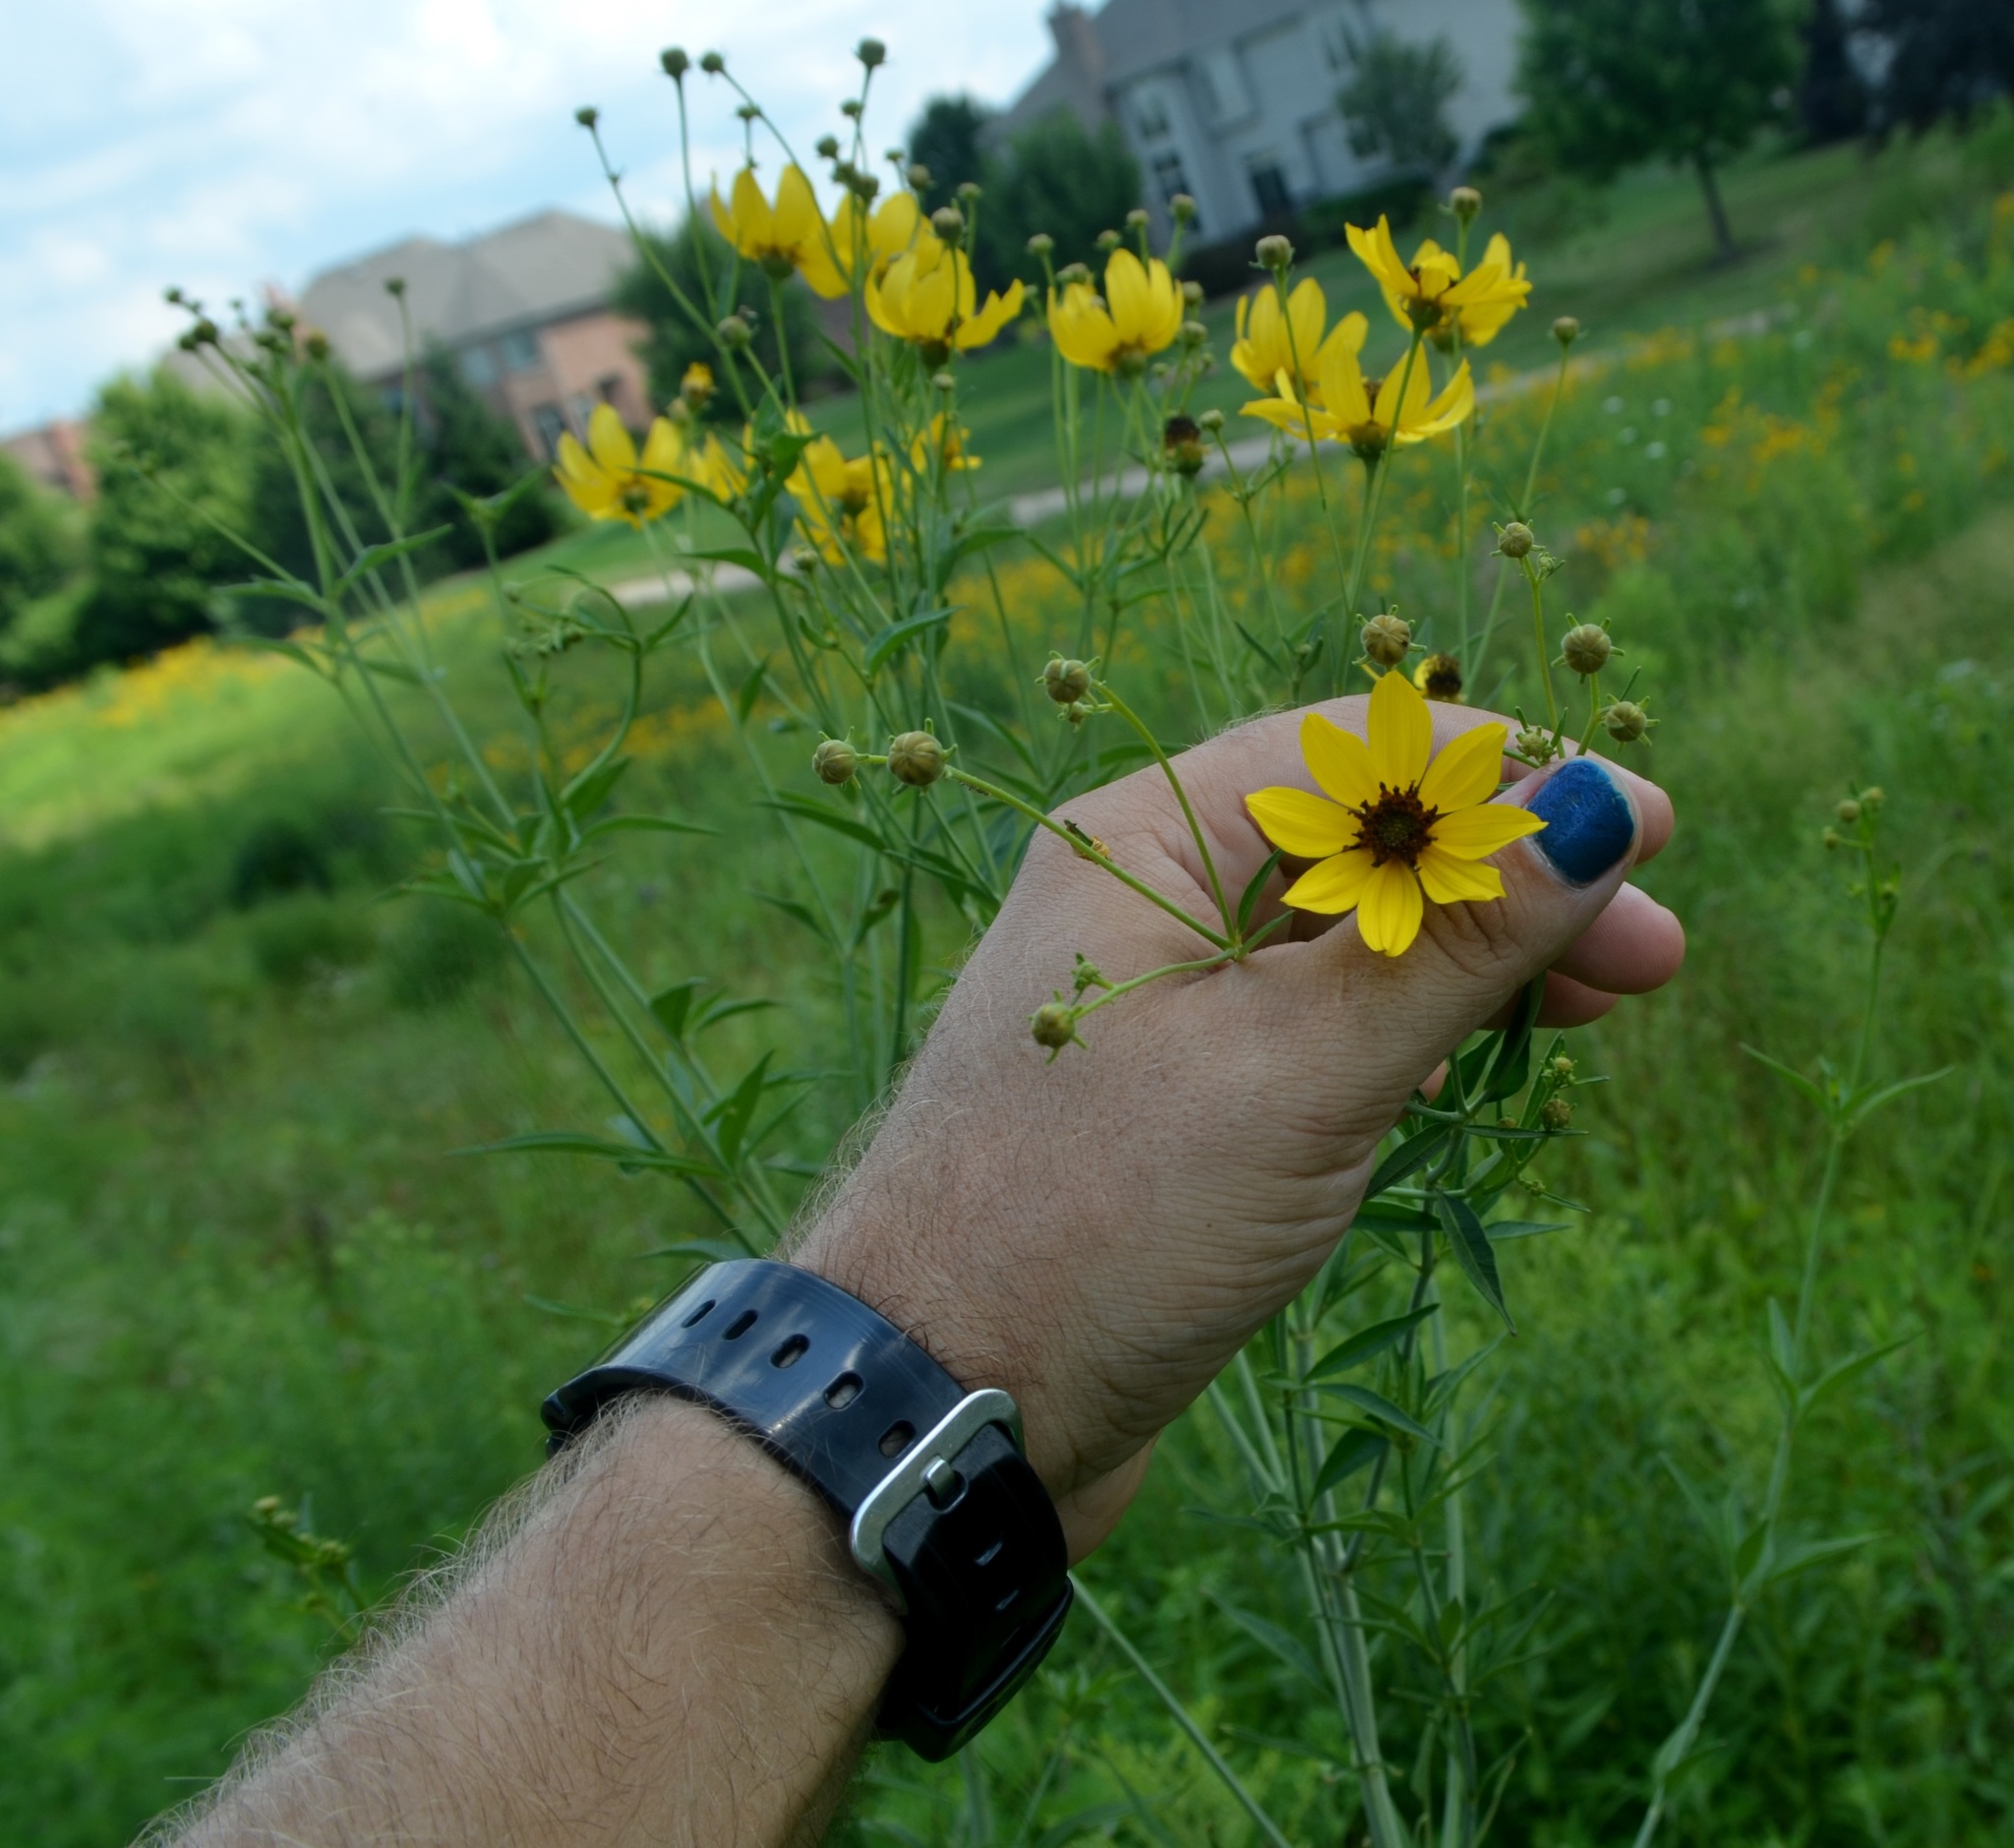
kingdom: Plantae
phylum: Tracheophyta
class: Magnoliopsida
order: Asterales
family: Asteraceae
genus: Coreopsis
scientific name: Coreopsis tripteris
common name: Tall coreopsis
